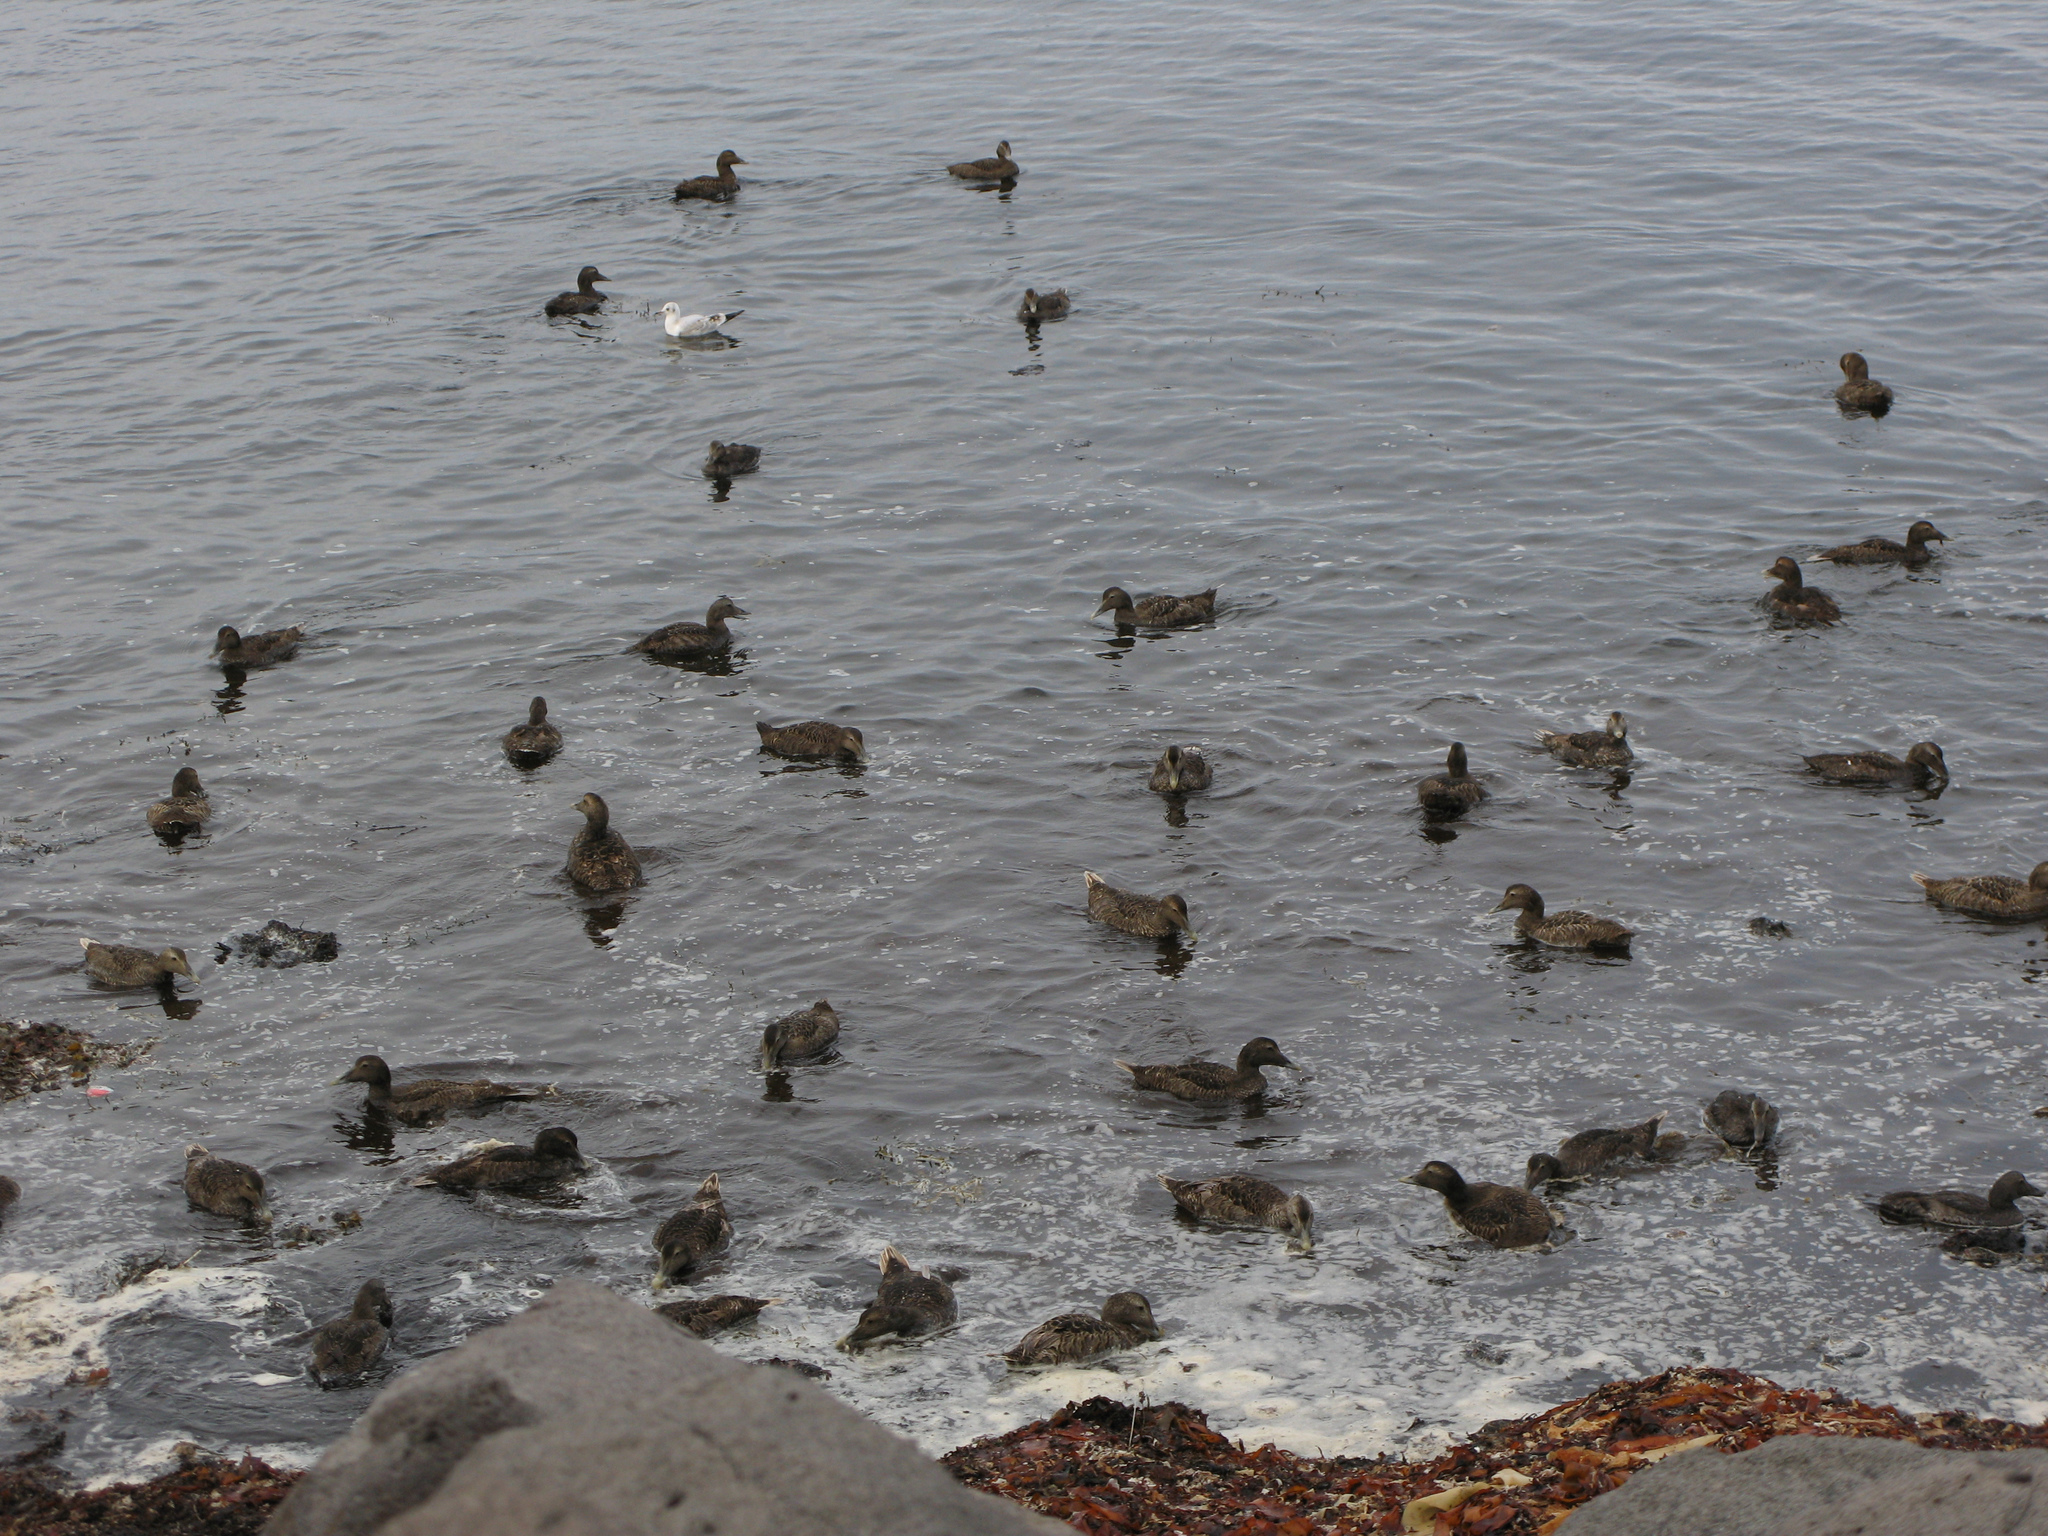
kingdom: Animalia
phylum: Chordata
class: Aves
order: Anseriformes
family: Anatidae
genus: Somateria
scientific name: Somateria mollissima
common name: Common eider
